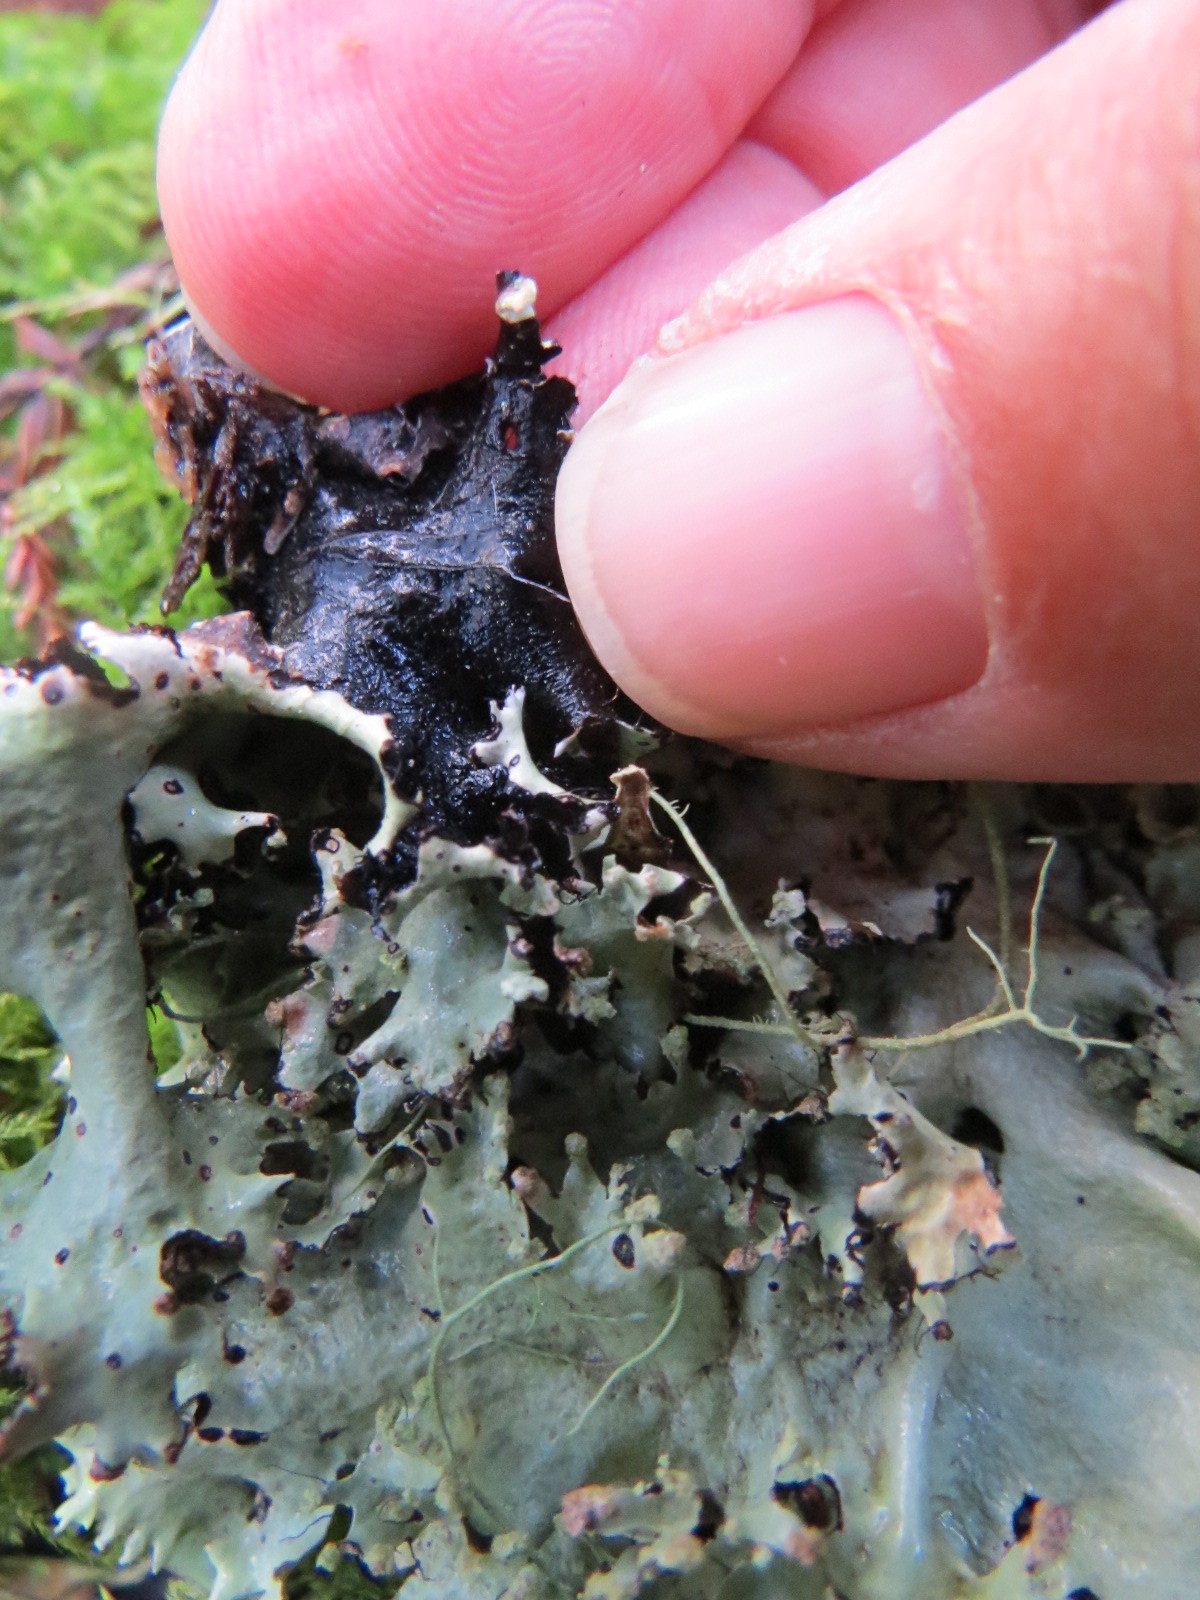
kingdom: Fungi
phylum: Ascomycota
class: Lecanoromycetes
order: Lecanorales
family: Parmeliaceae
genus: Platismatia
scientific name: Platismatia glauca
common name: Varied rag lichen
